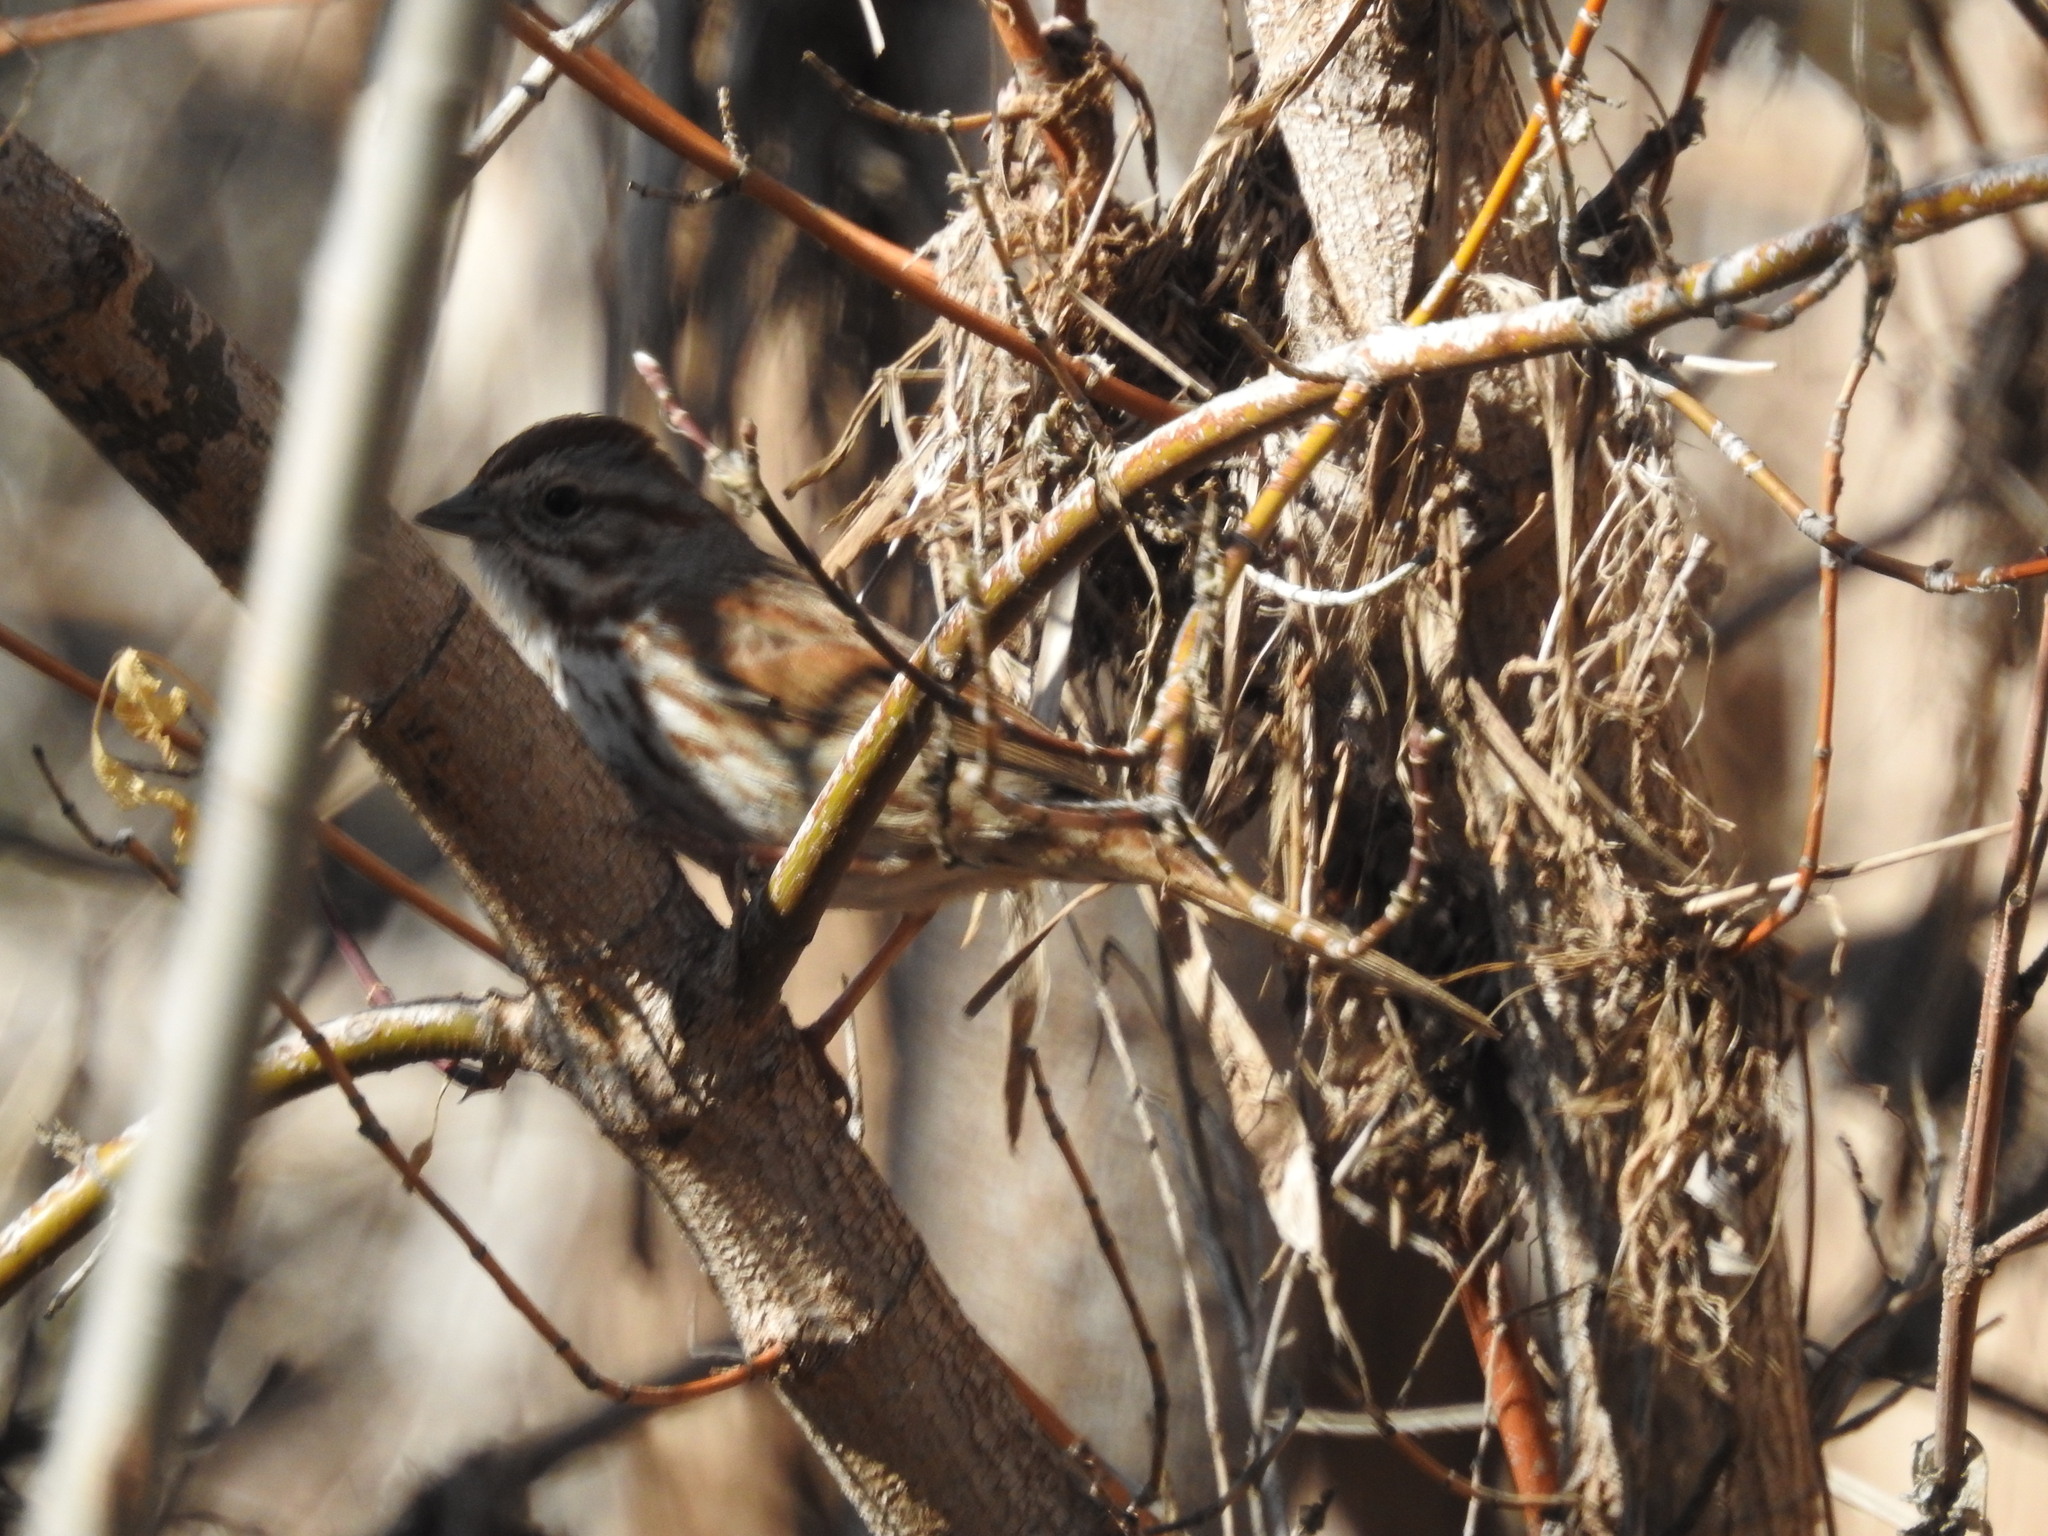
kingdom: Animalia
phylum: Chordata
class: Aves
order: Passeriformes
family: Passerellidae
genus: Melospiza
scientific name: Melospiza melodia
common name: Song sparrow
